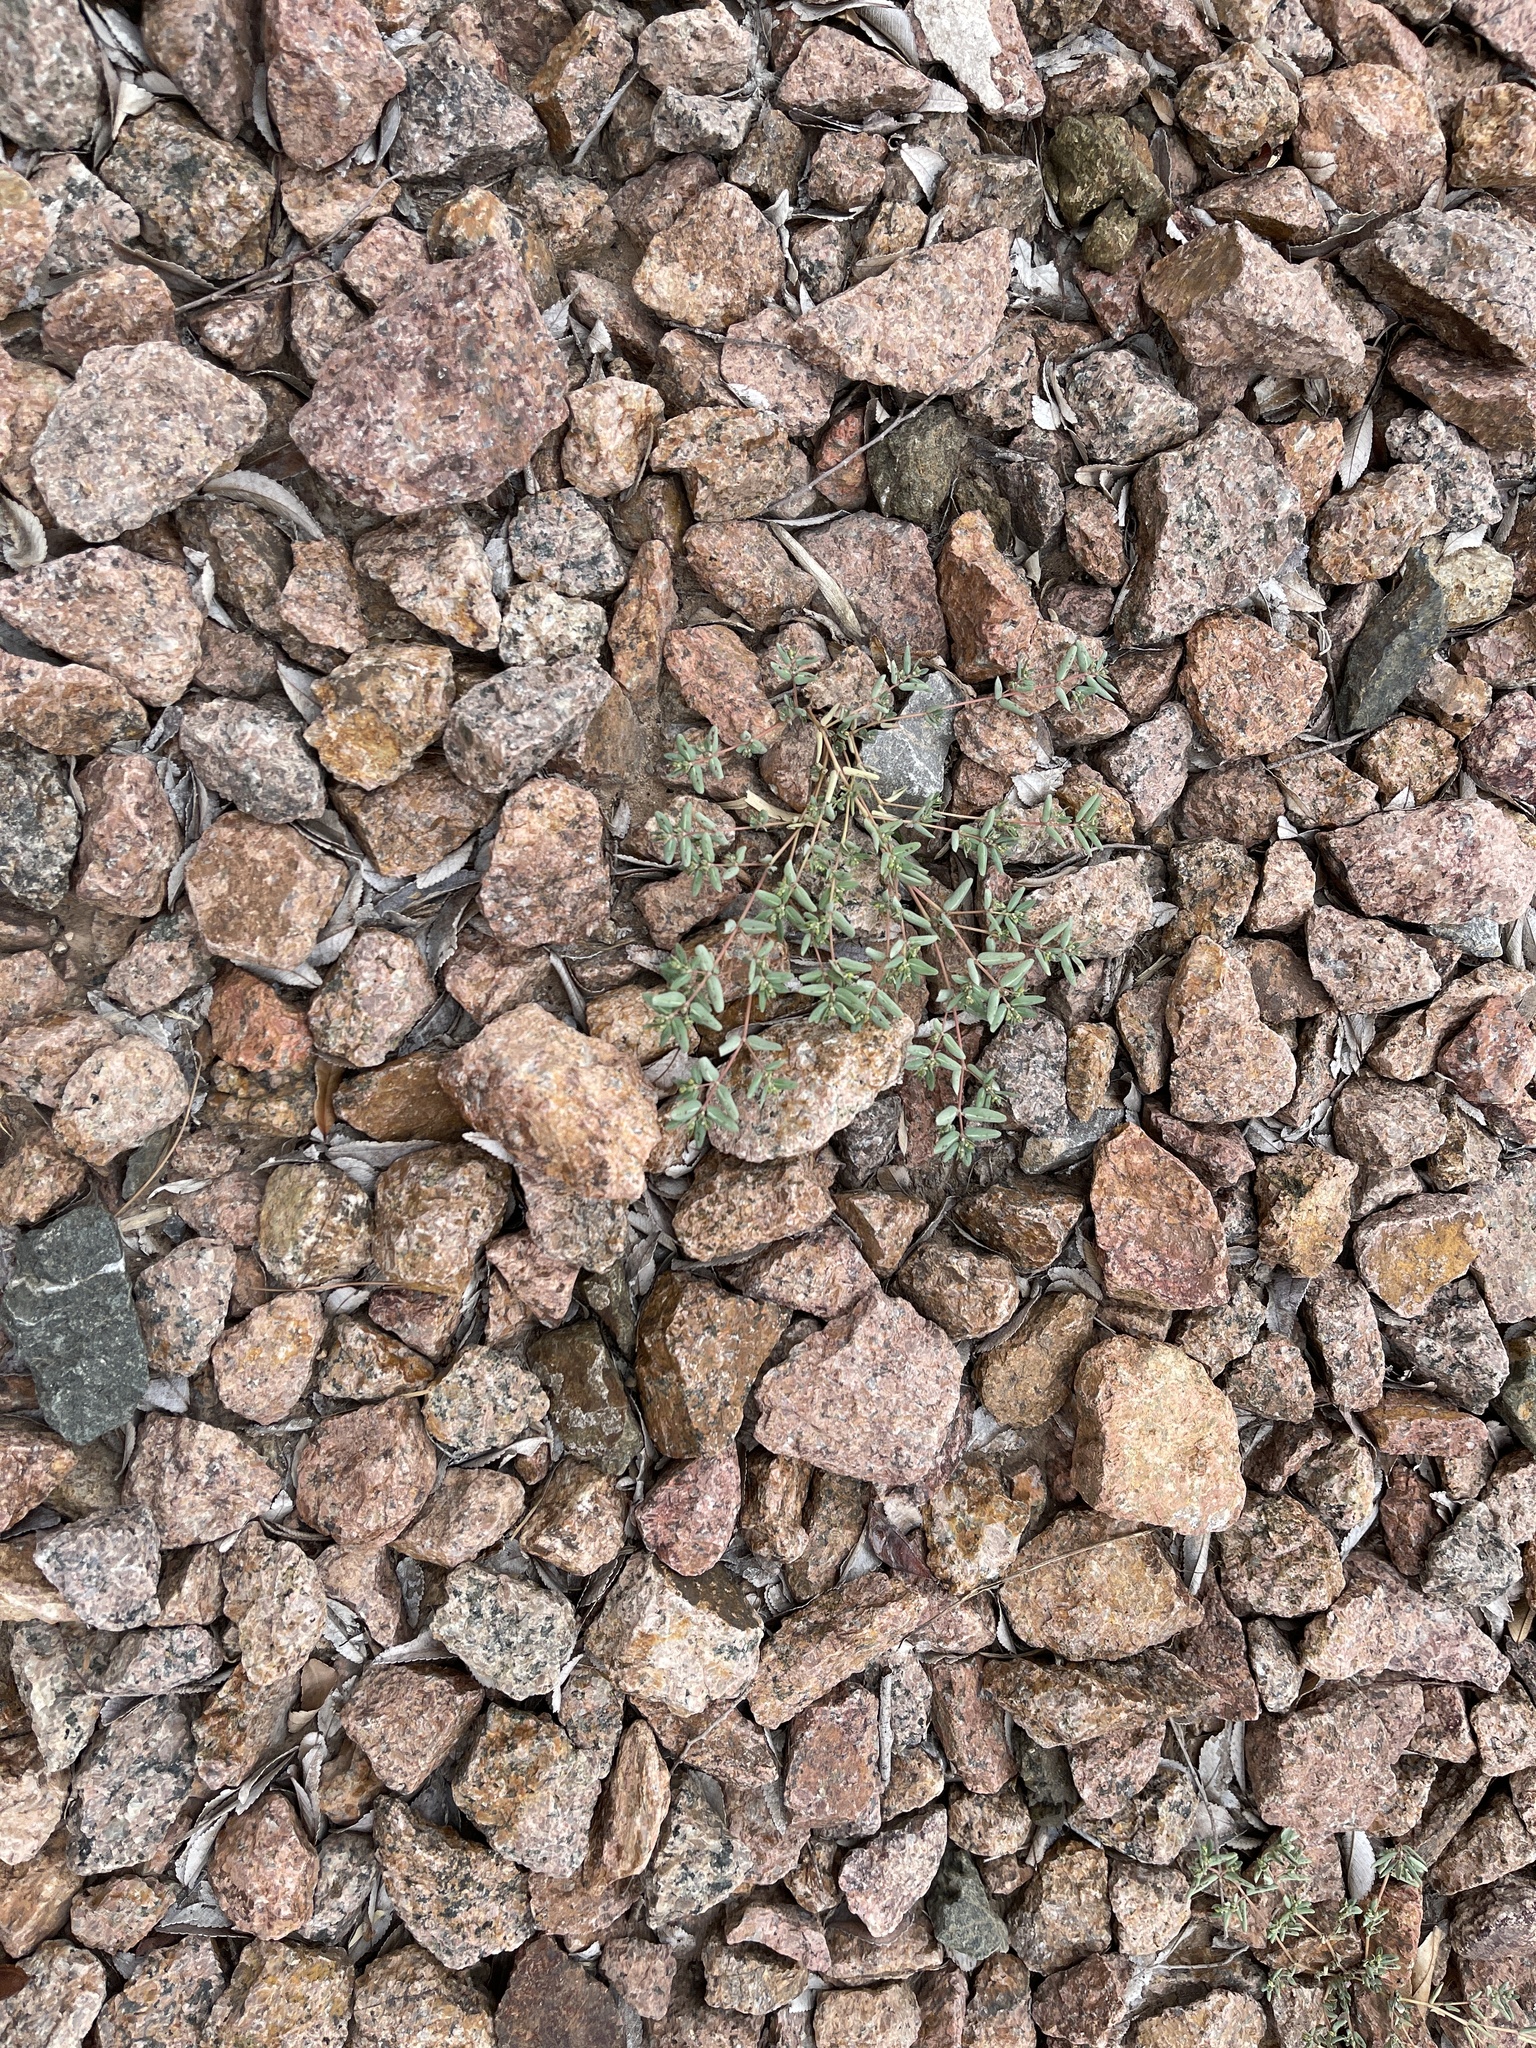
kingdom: Plantae
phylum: Tracheophyta
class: Magnoliopsida
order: Malpighiales
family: Euphorbiaceae
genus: Euphorbia
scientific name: Euphorbia abramsiana
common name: Abram's spurge
